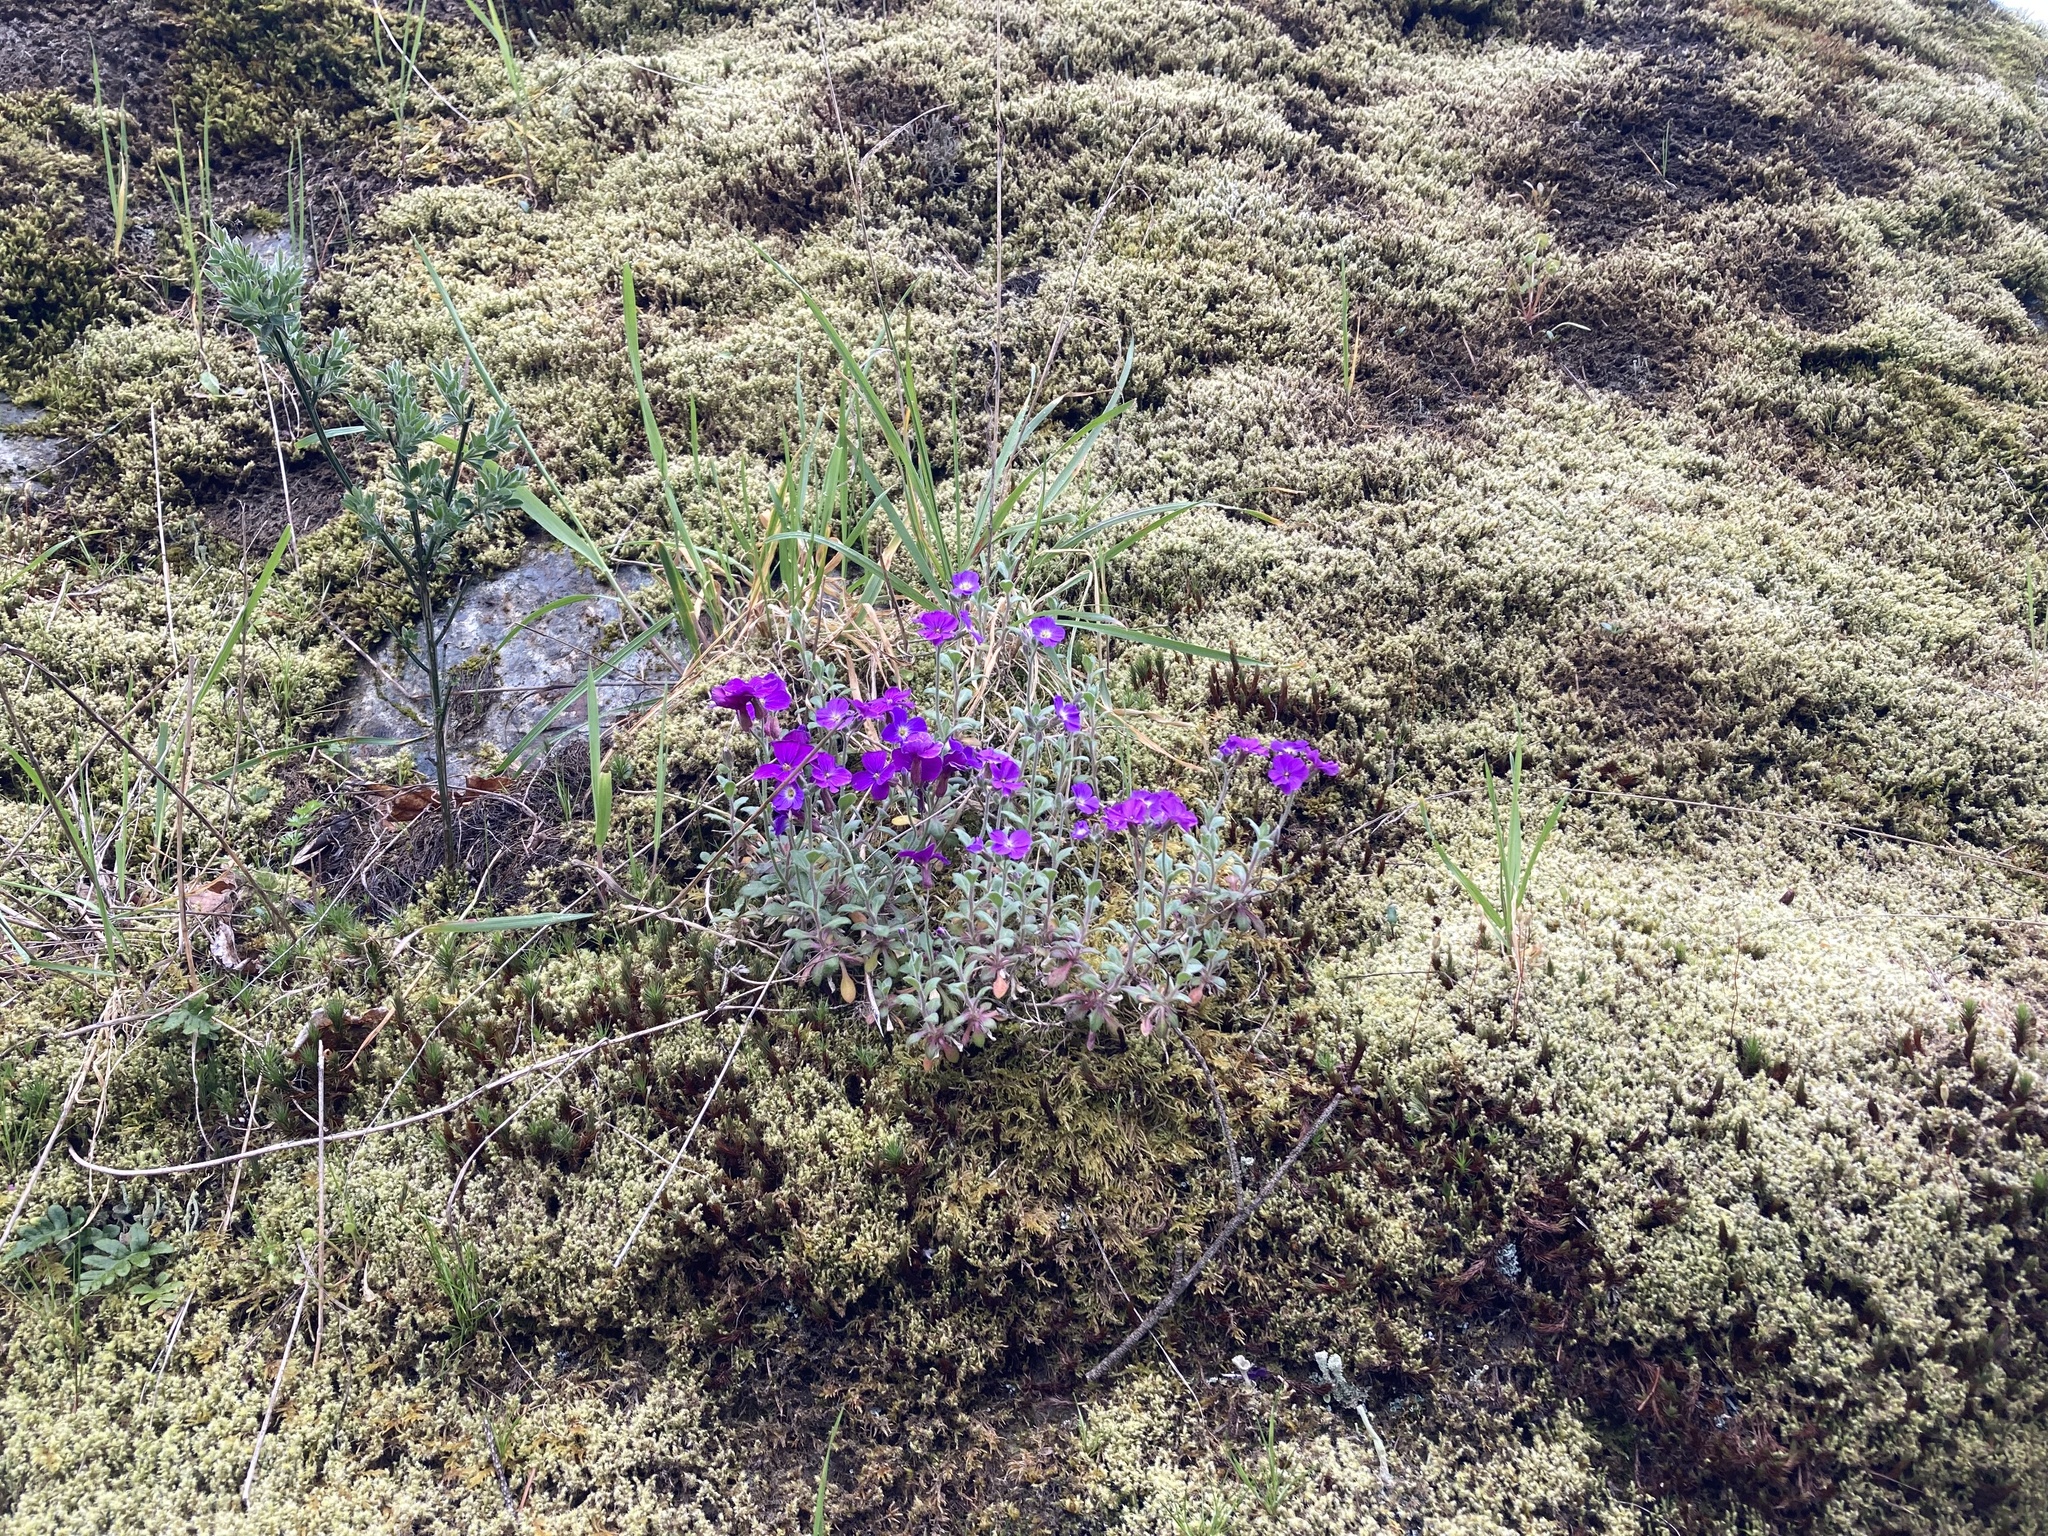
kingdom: Plantae
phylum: Tracheophyta
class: Magnoliopsida
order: Brassicales
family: Brassicaceae
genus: Aubrieta
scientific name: Aubrieta deltoidea
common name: Aubretia
